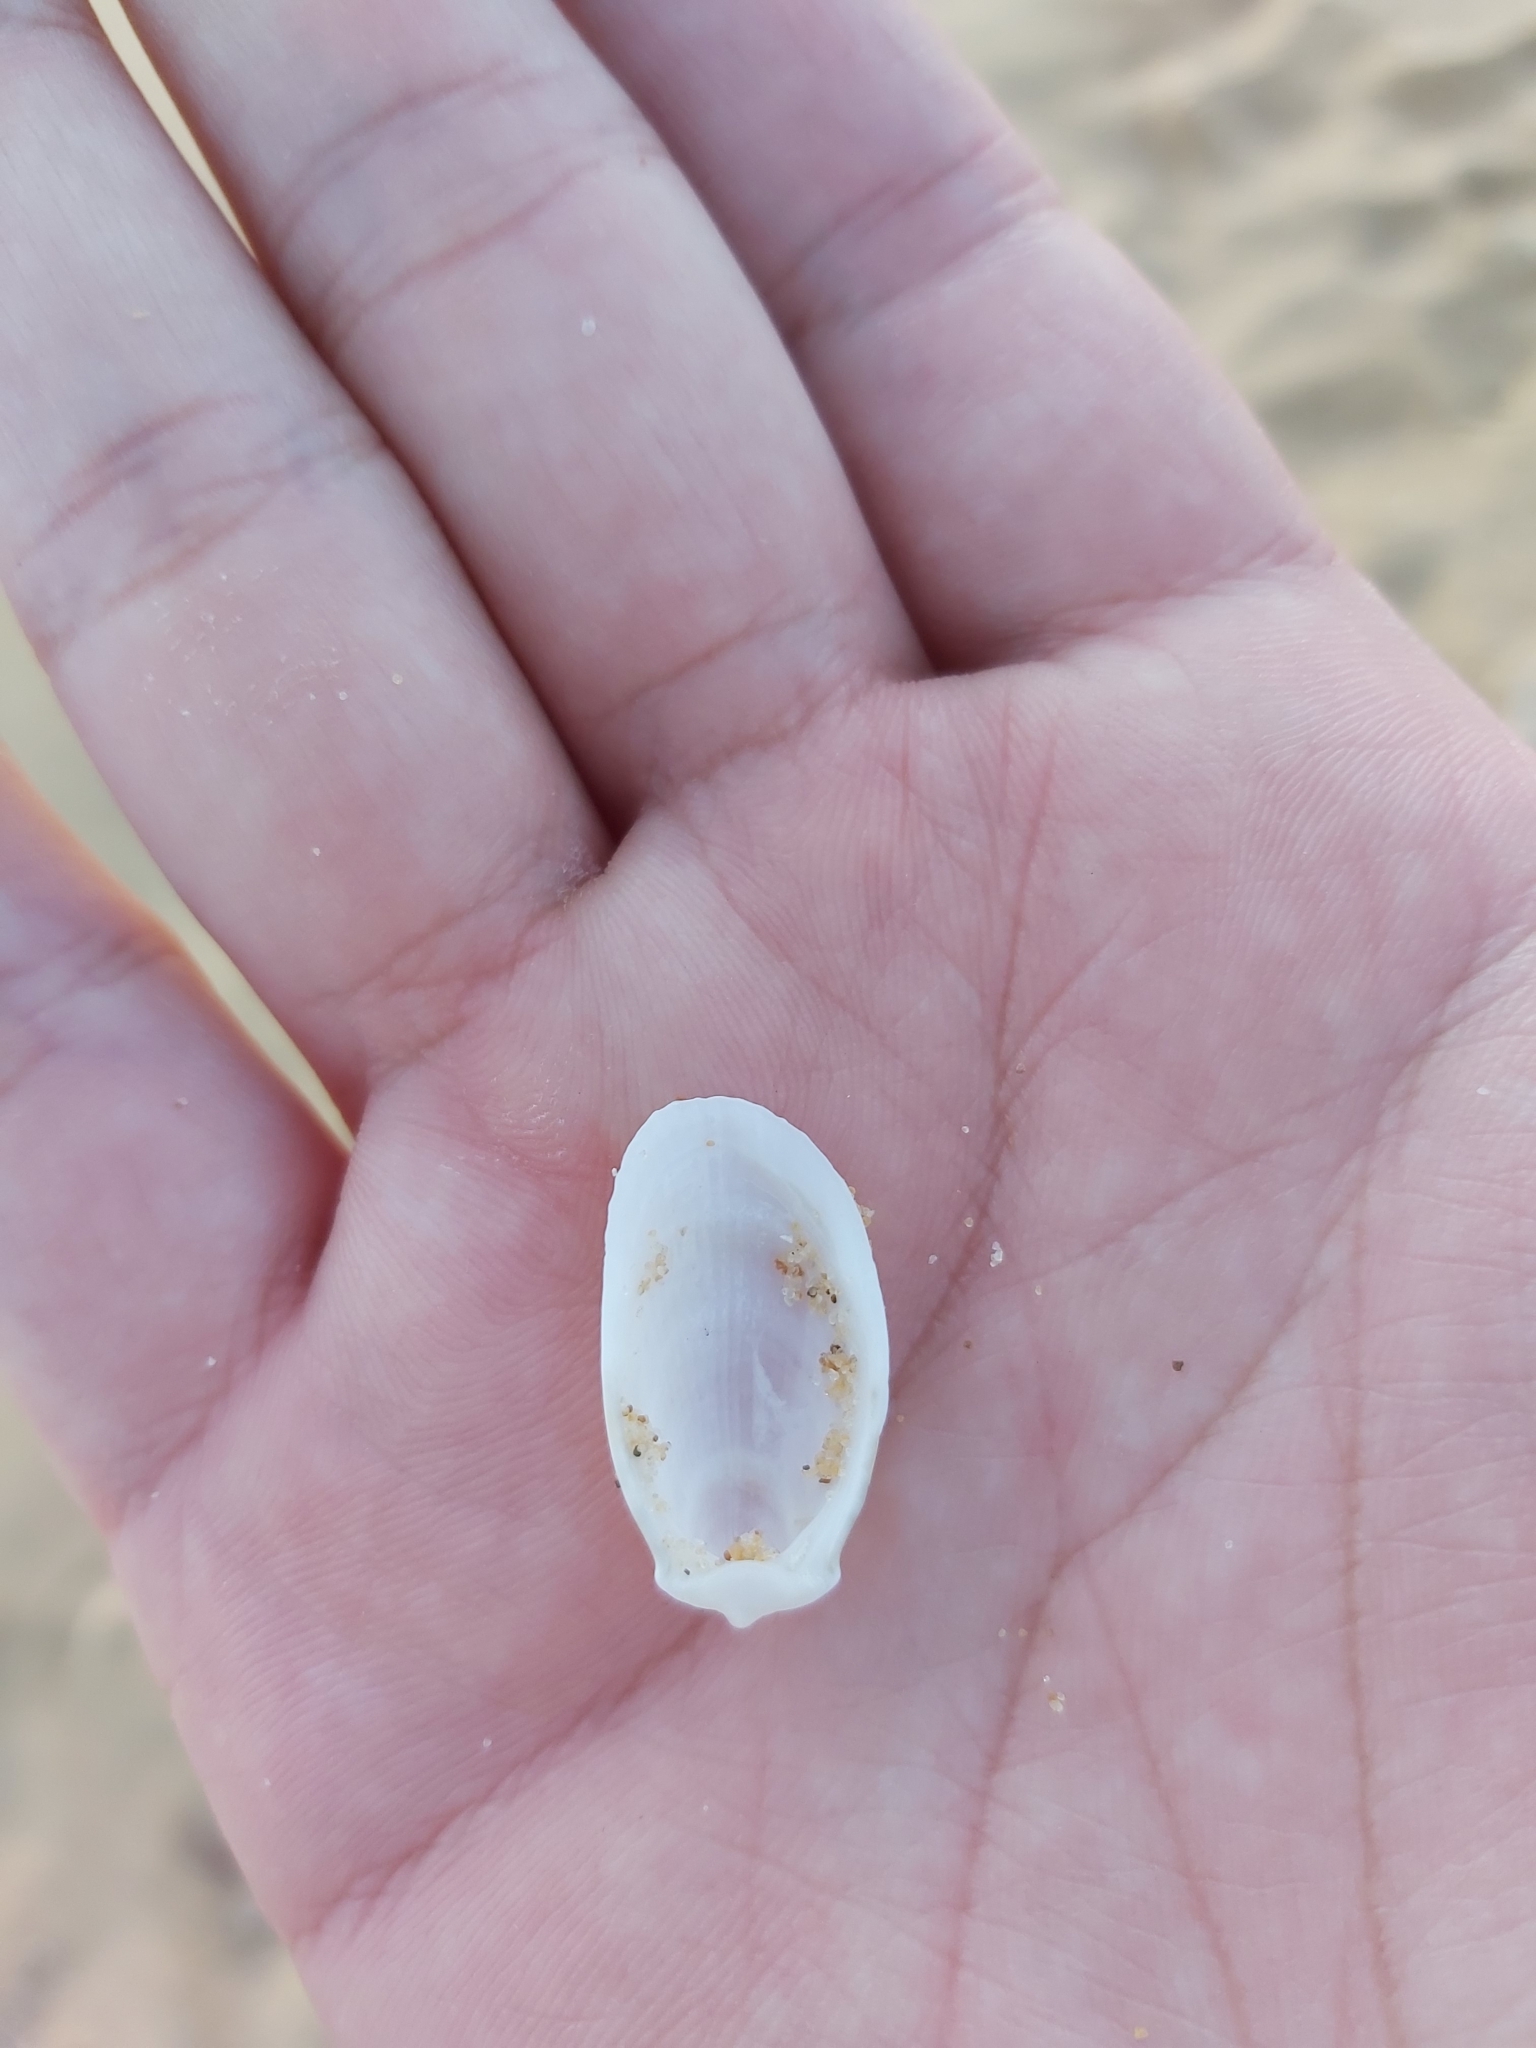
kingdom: Animalia
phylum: Mollusca
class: Bivalvia
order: Limida
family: Limidae
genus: Limatula
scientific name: Limatula strangei
